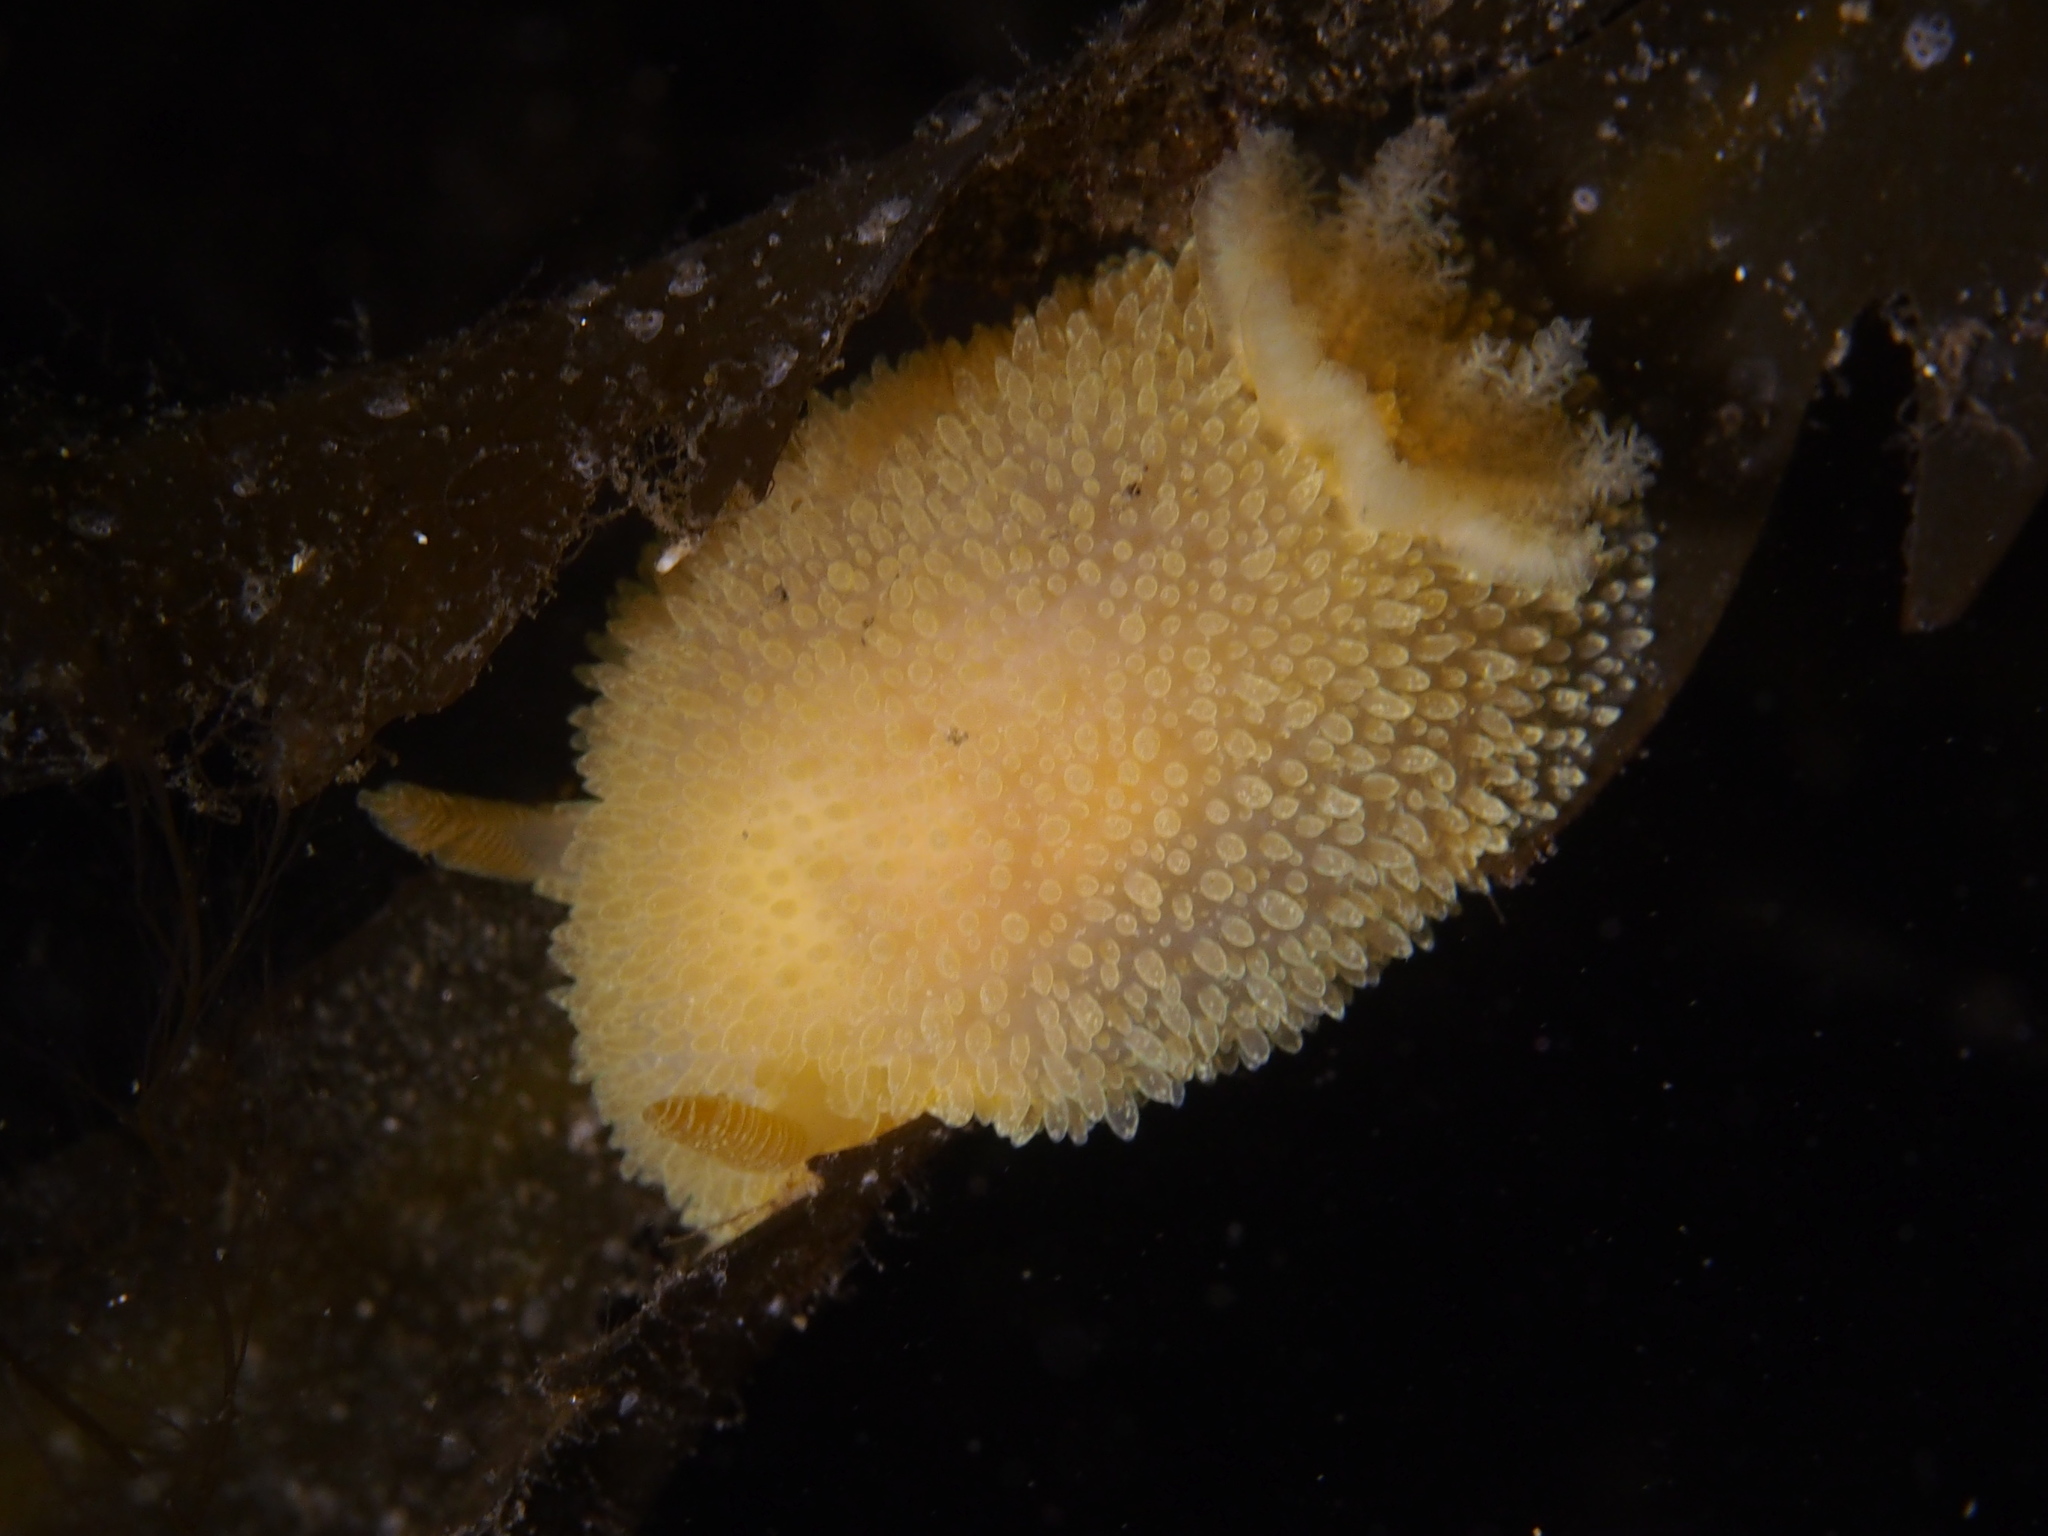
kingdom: Animalia
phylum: Mollusca
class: Gastropoda
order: Nudibranchia
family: Onchidorididae
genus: Acanthodoris
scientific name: Acanthodoris pilosa
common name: Hairy spiny doris
